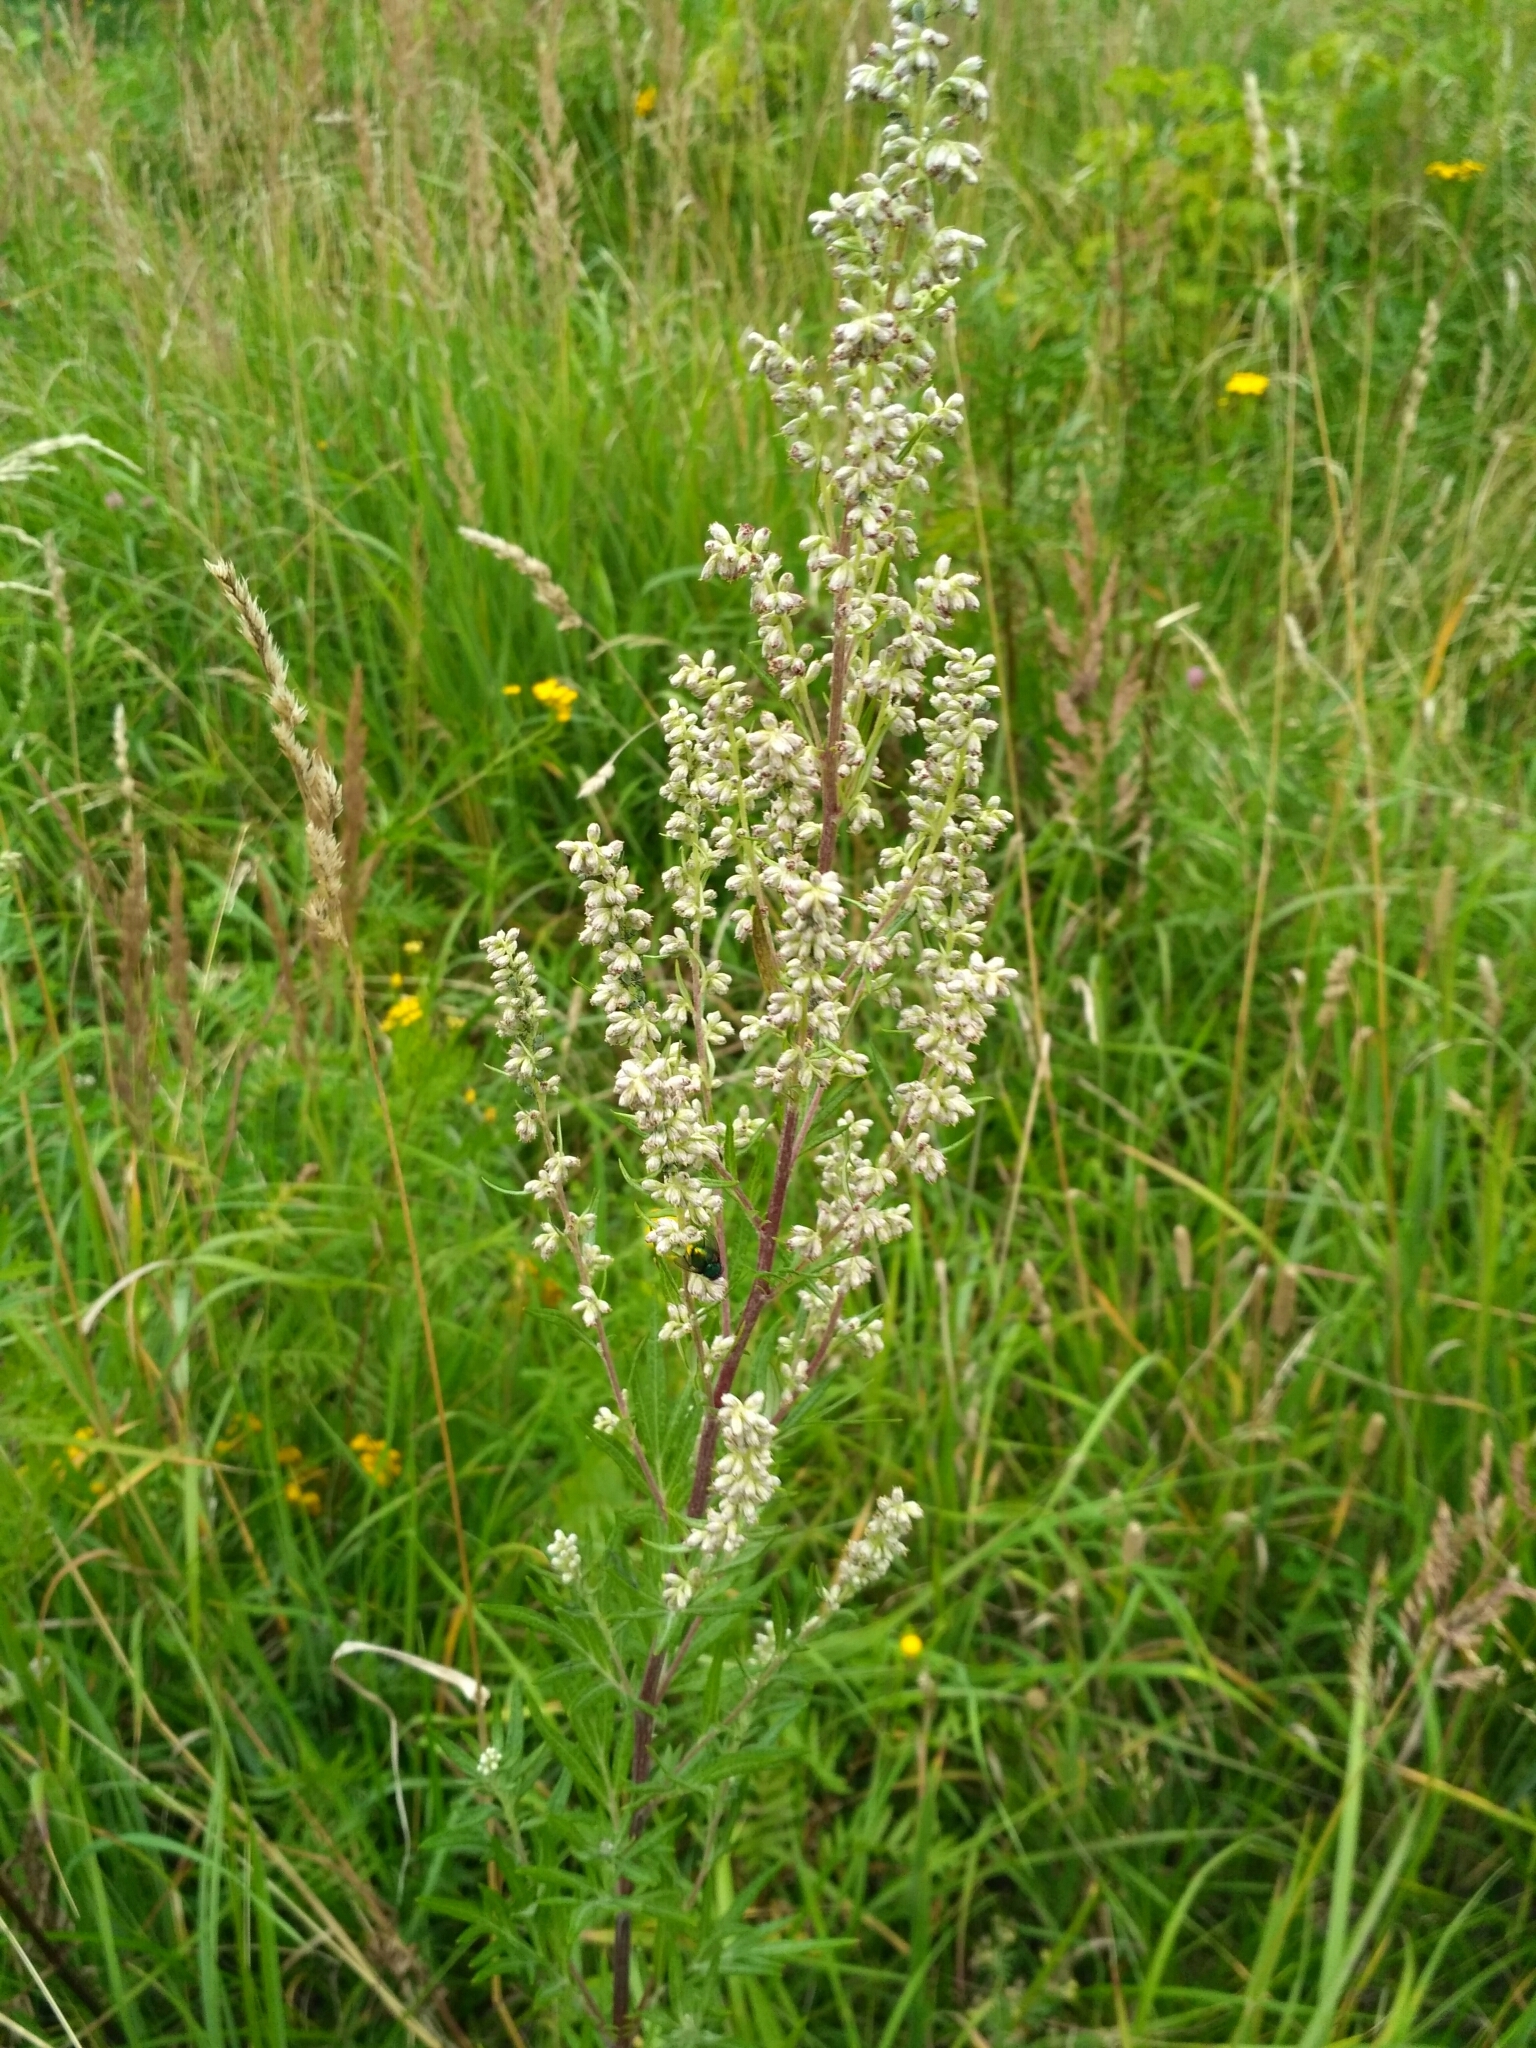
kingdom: Plantae
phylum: Tracheophyta
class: Magnoliopsida
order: Asterales
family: Asteraceae
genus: Artemisia
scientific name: Artemisia vulgaris
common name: Mugwort
